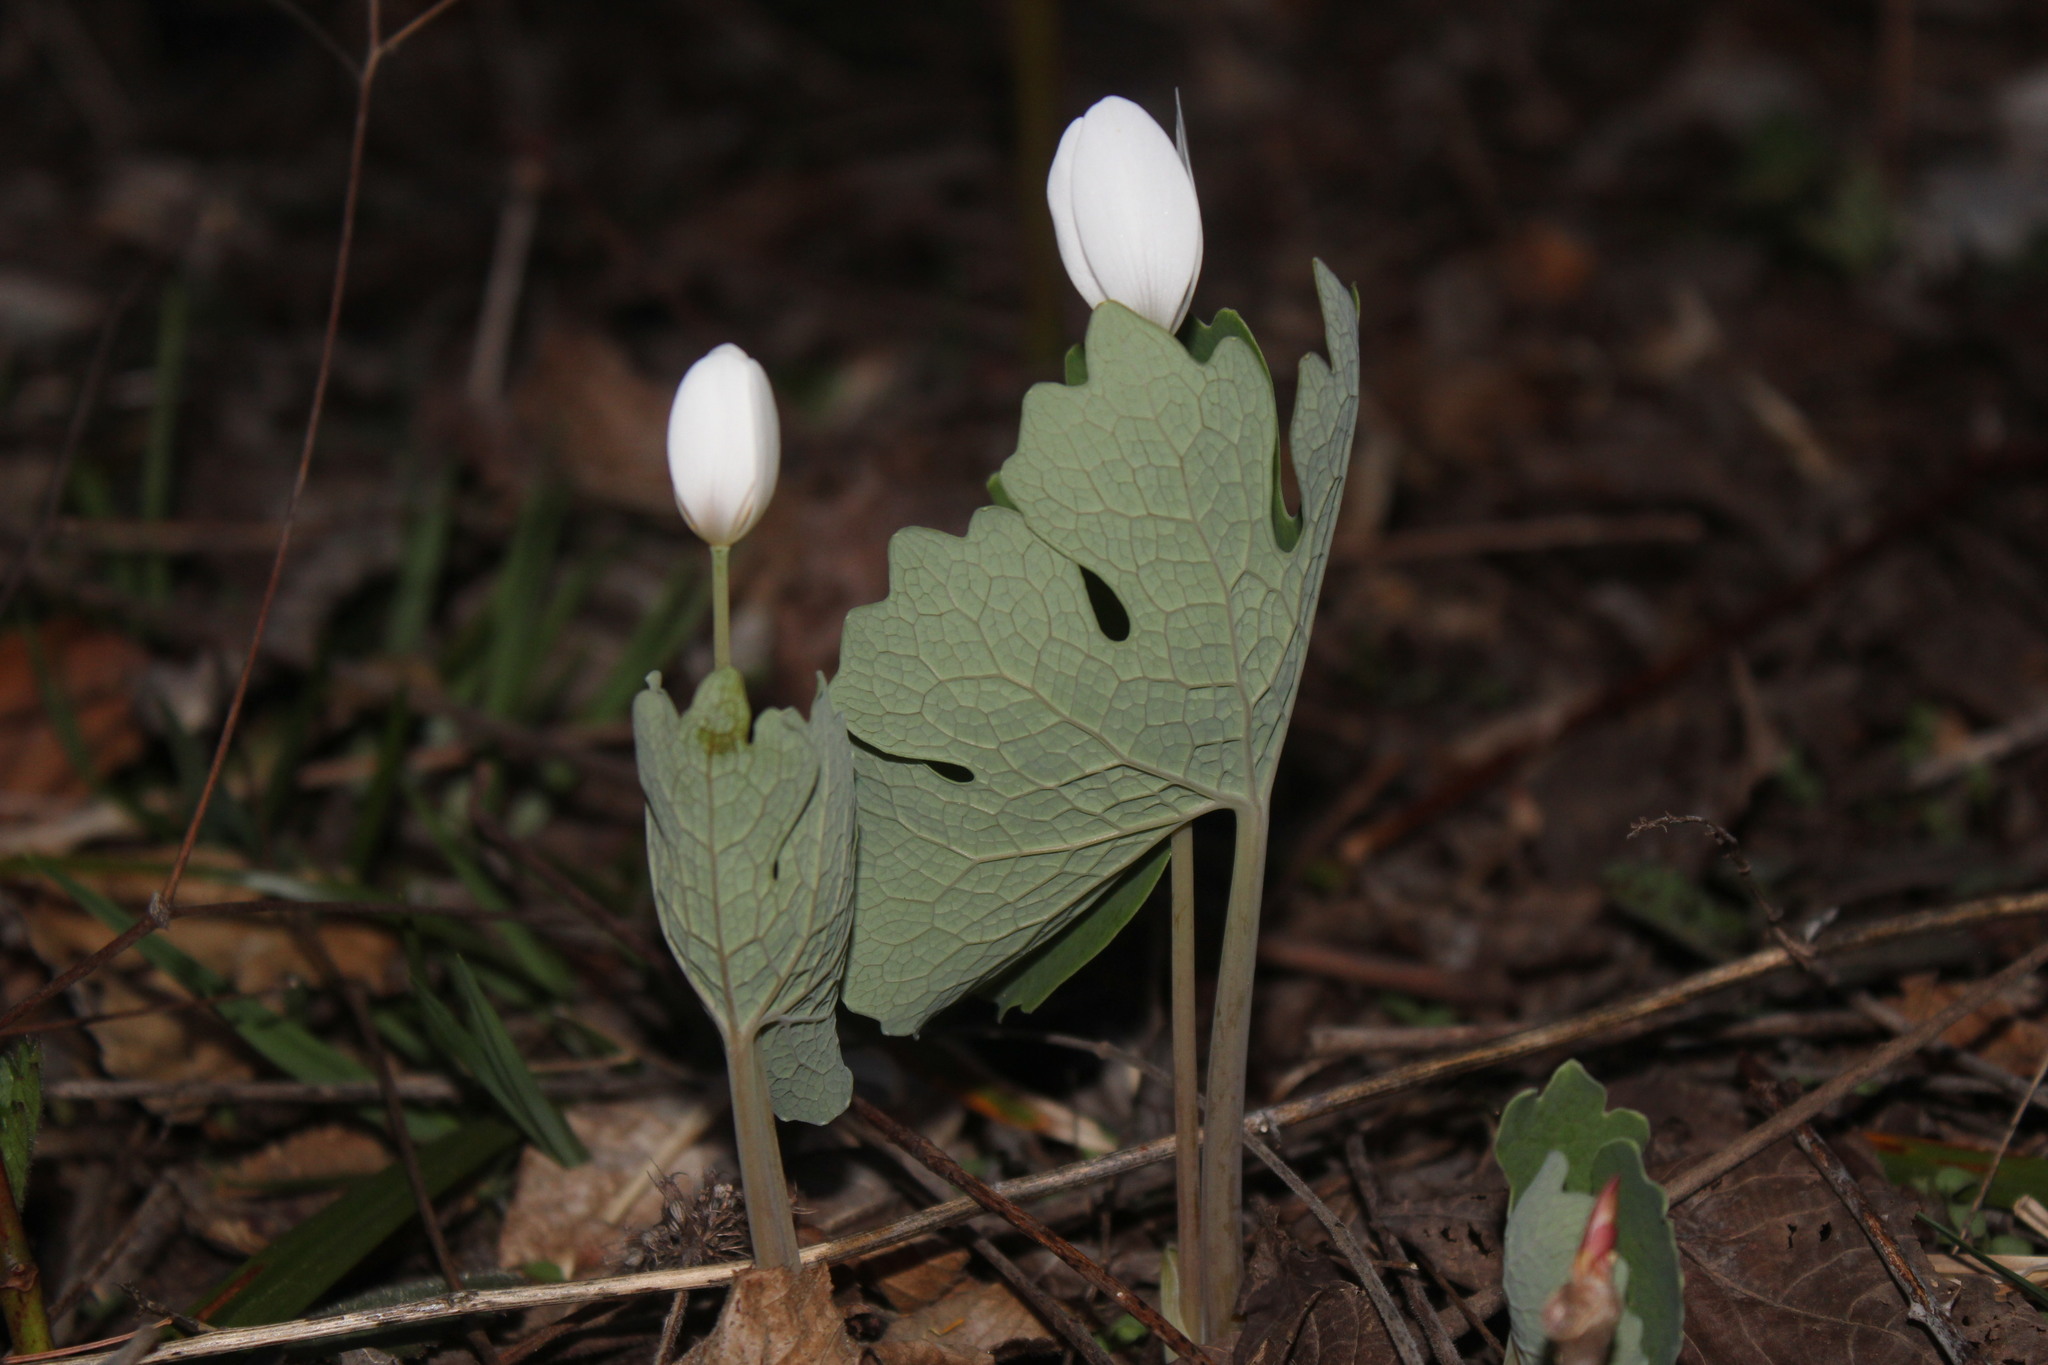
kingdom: Plantae
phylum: Tracheophyta
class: Magnoliopsida
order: Ranunculales
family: Papaveraceae
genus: Sanguinaria
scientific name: Sanguinaria canadensis
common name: Bloodroot
